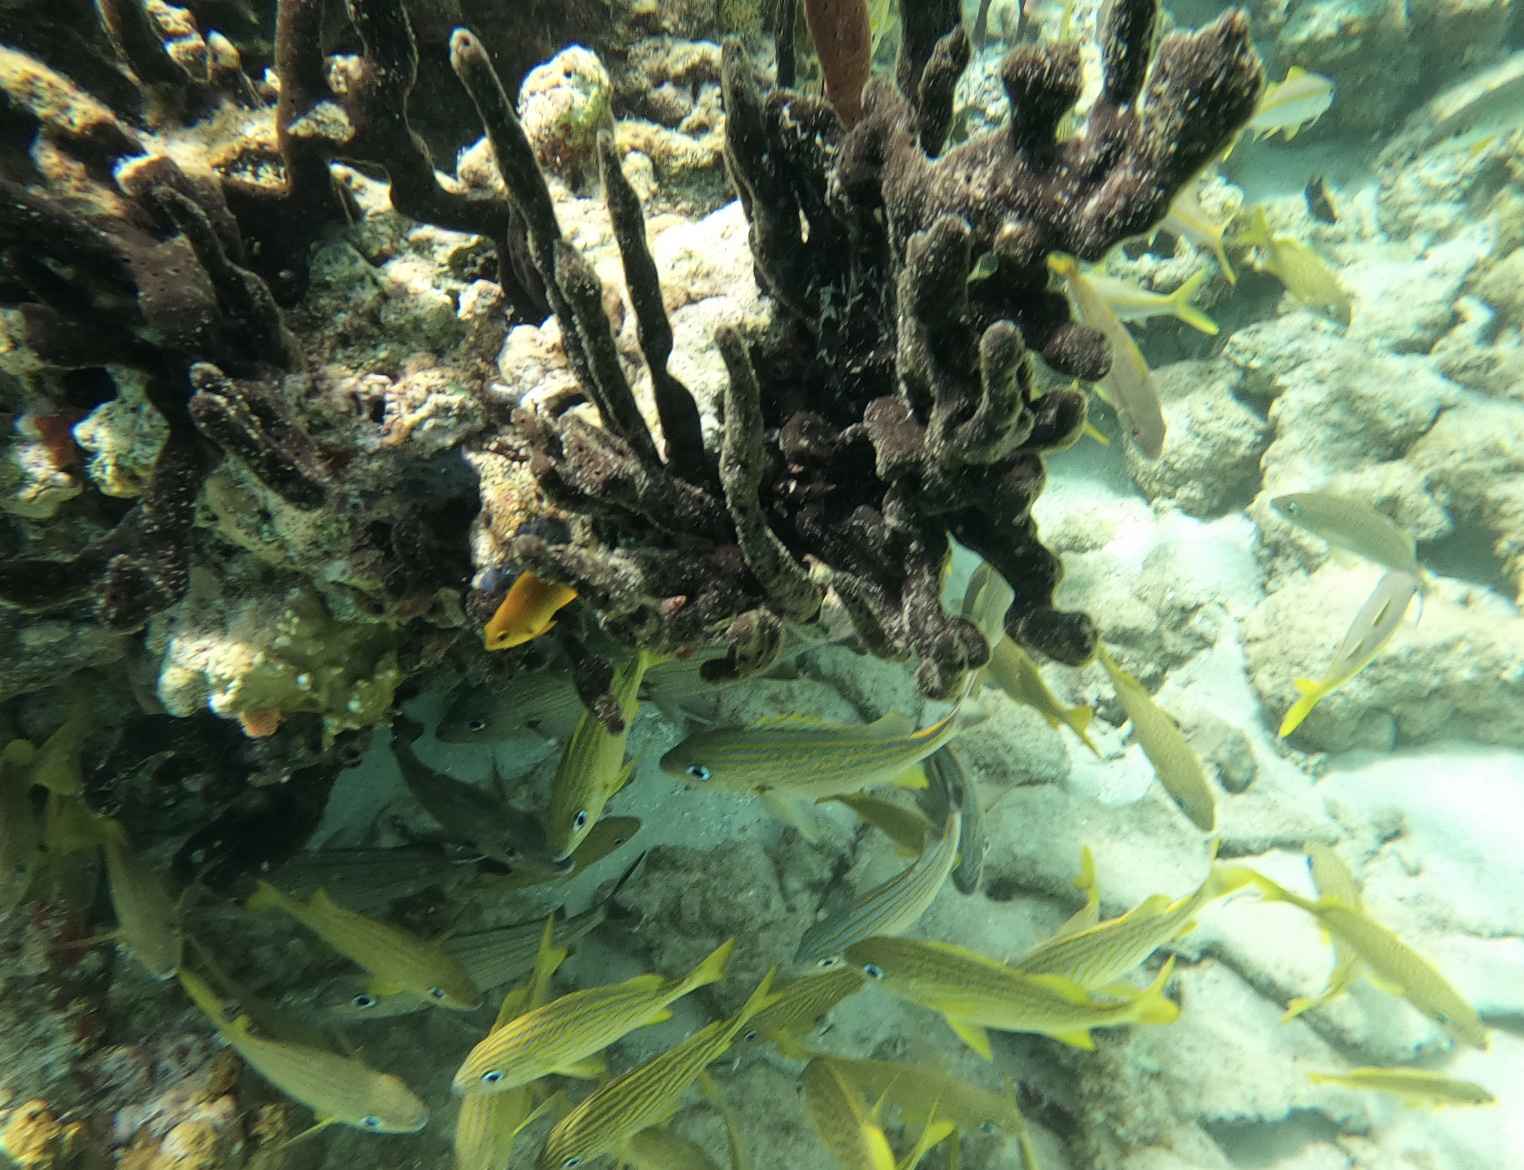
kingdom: Animalia
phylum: Chordata
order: Perciformes
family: Mullidae
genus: Mulloidichthys
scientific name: Mulloidichthys martinicus
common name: Yellow goatfish
